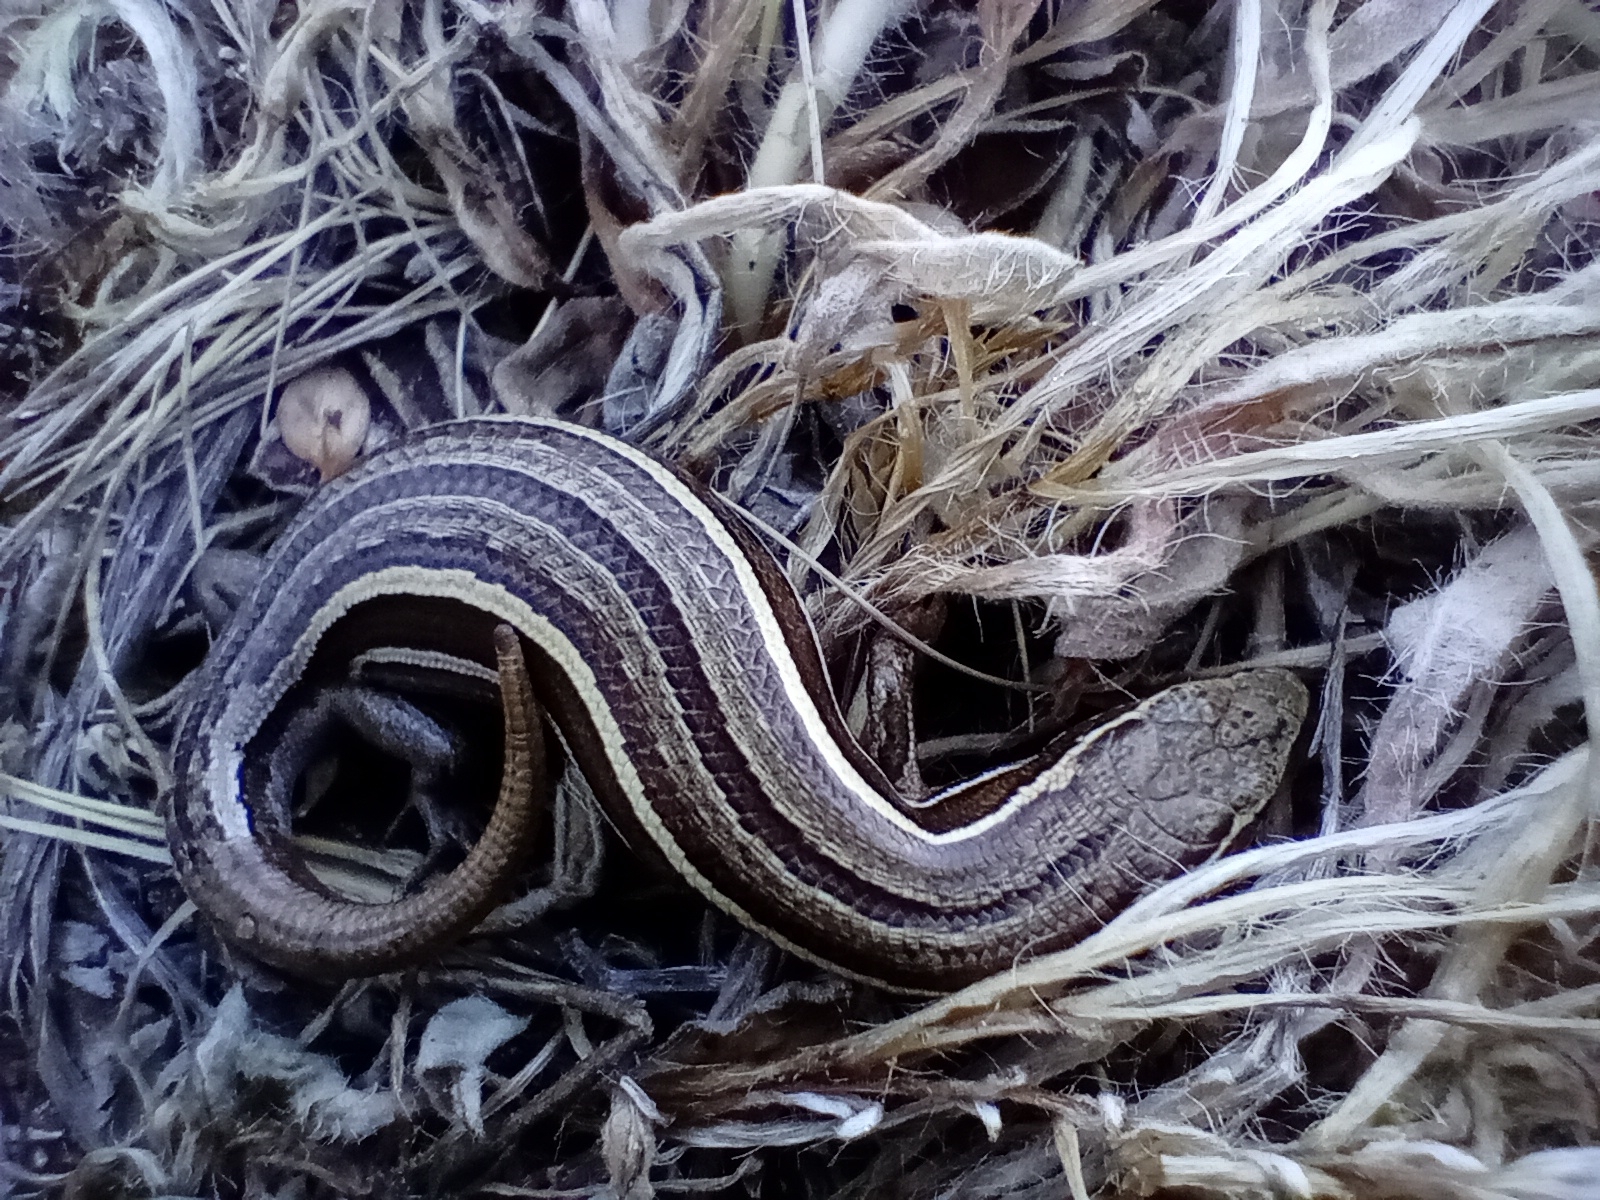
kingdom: Animalia
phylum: Chordata
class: Squamata
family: Scincidae
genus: Oligosoma
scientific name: Oligosoma maccanni
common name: Mccann’s skink
